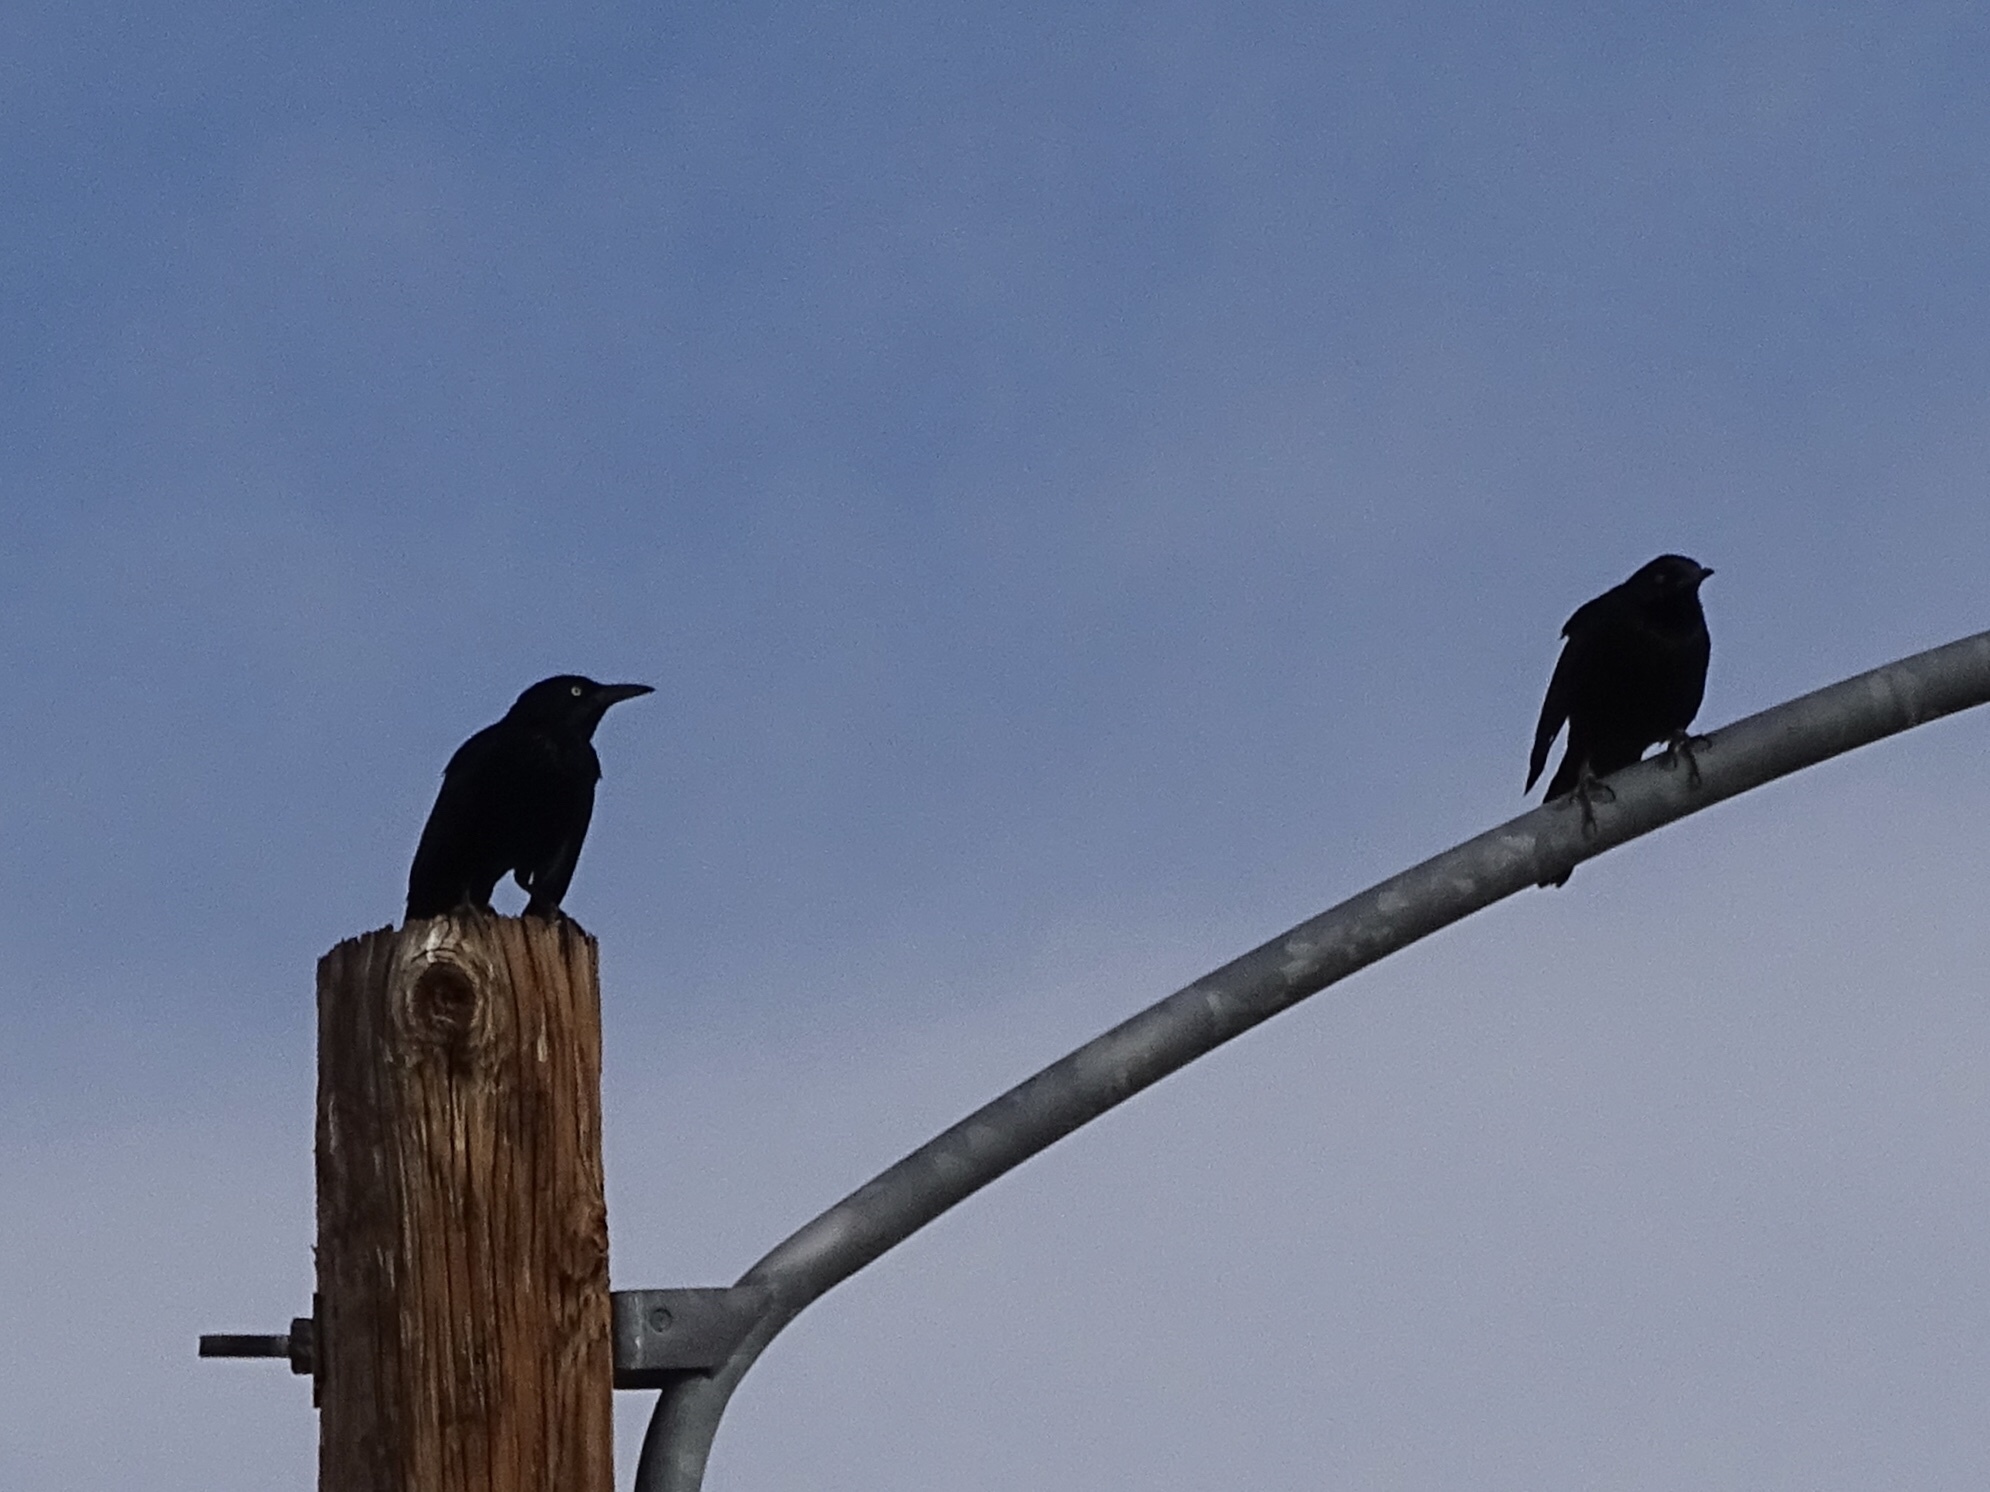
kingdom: Animalia
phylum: Chordata
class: Aves
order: Passeriformes
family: Icteridae
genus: Quiscalus
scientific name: Quiscalus mexicanus
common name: Great-tailed grackle
